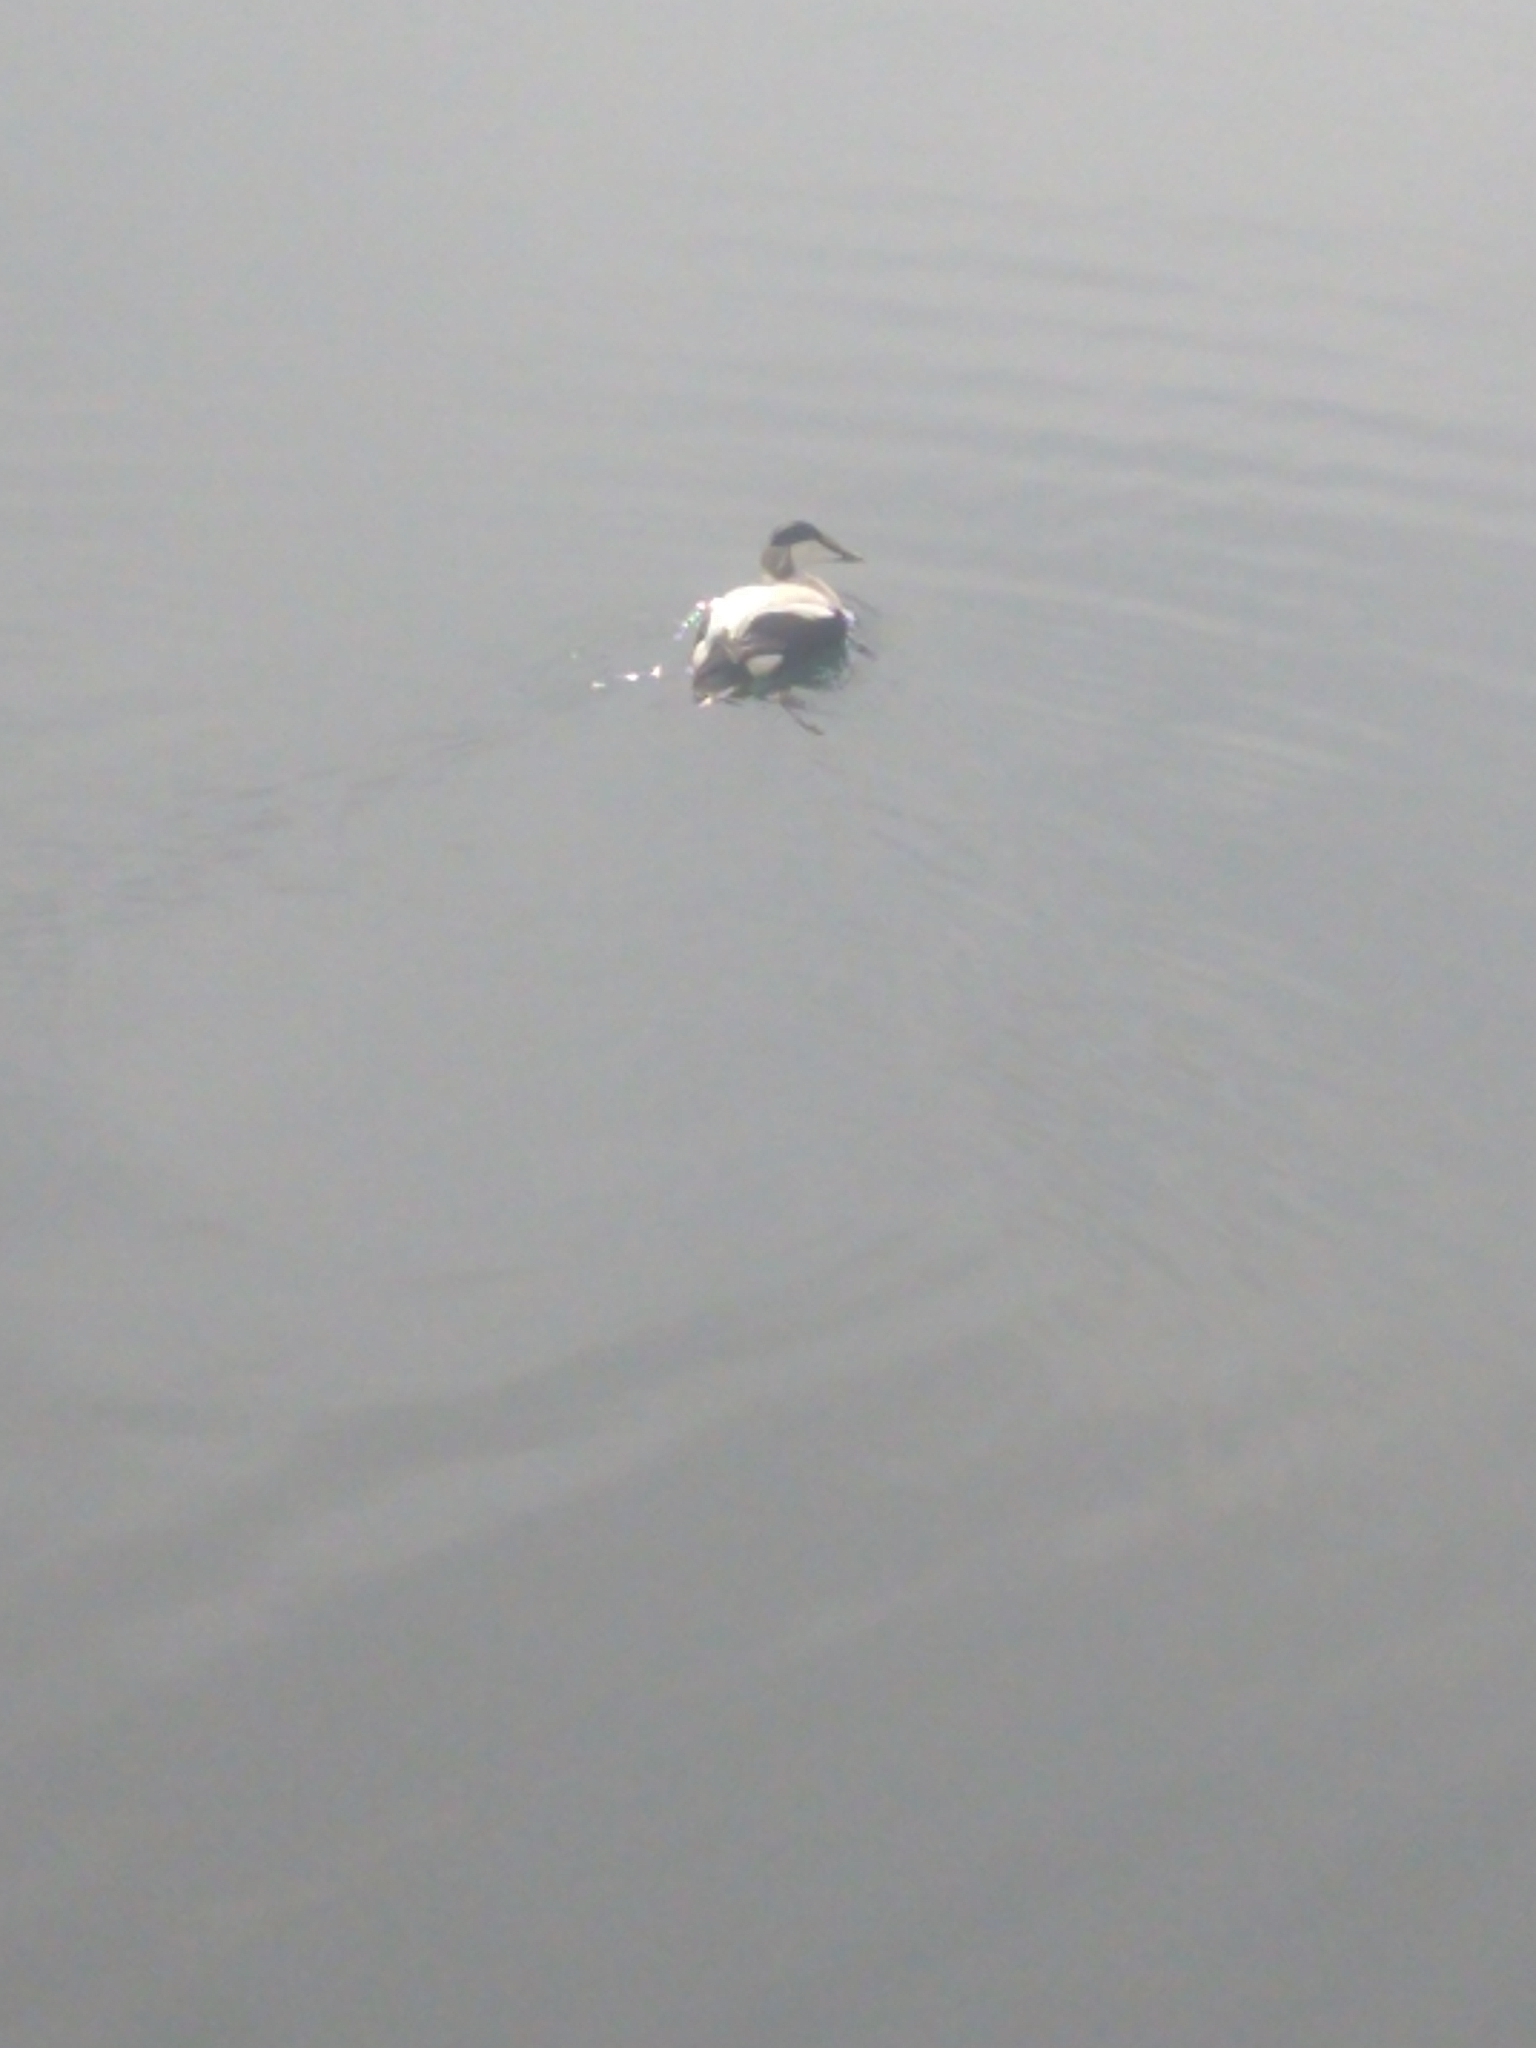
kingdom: Animalia
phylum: Chordata
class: Aves
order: Anseriformes
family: Anatidae
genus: Somateria
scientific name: Somateria mollissima
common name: Common eider
